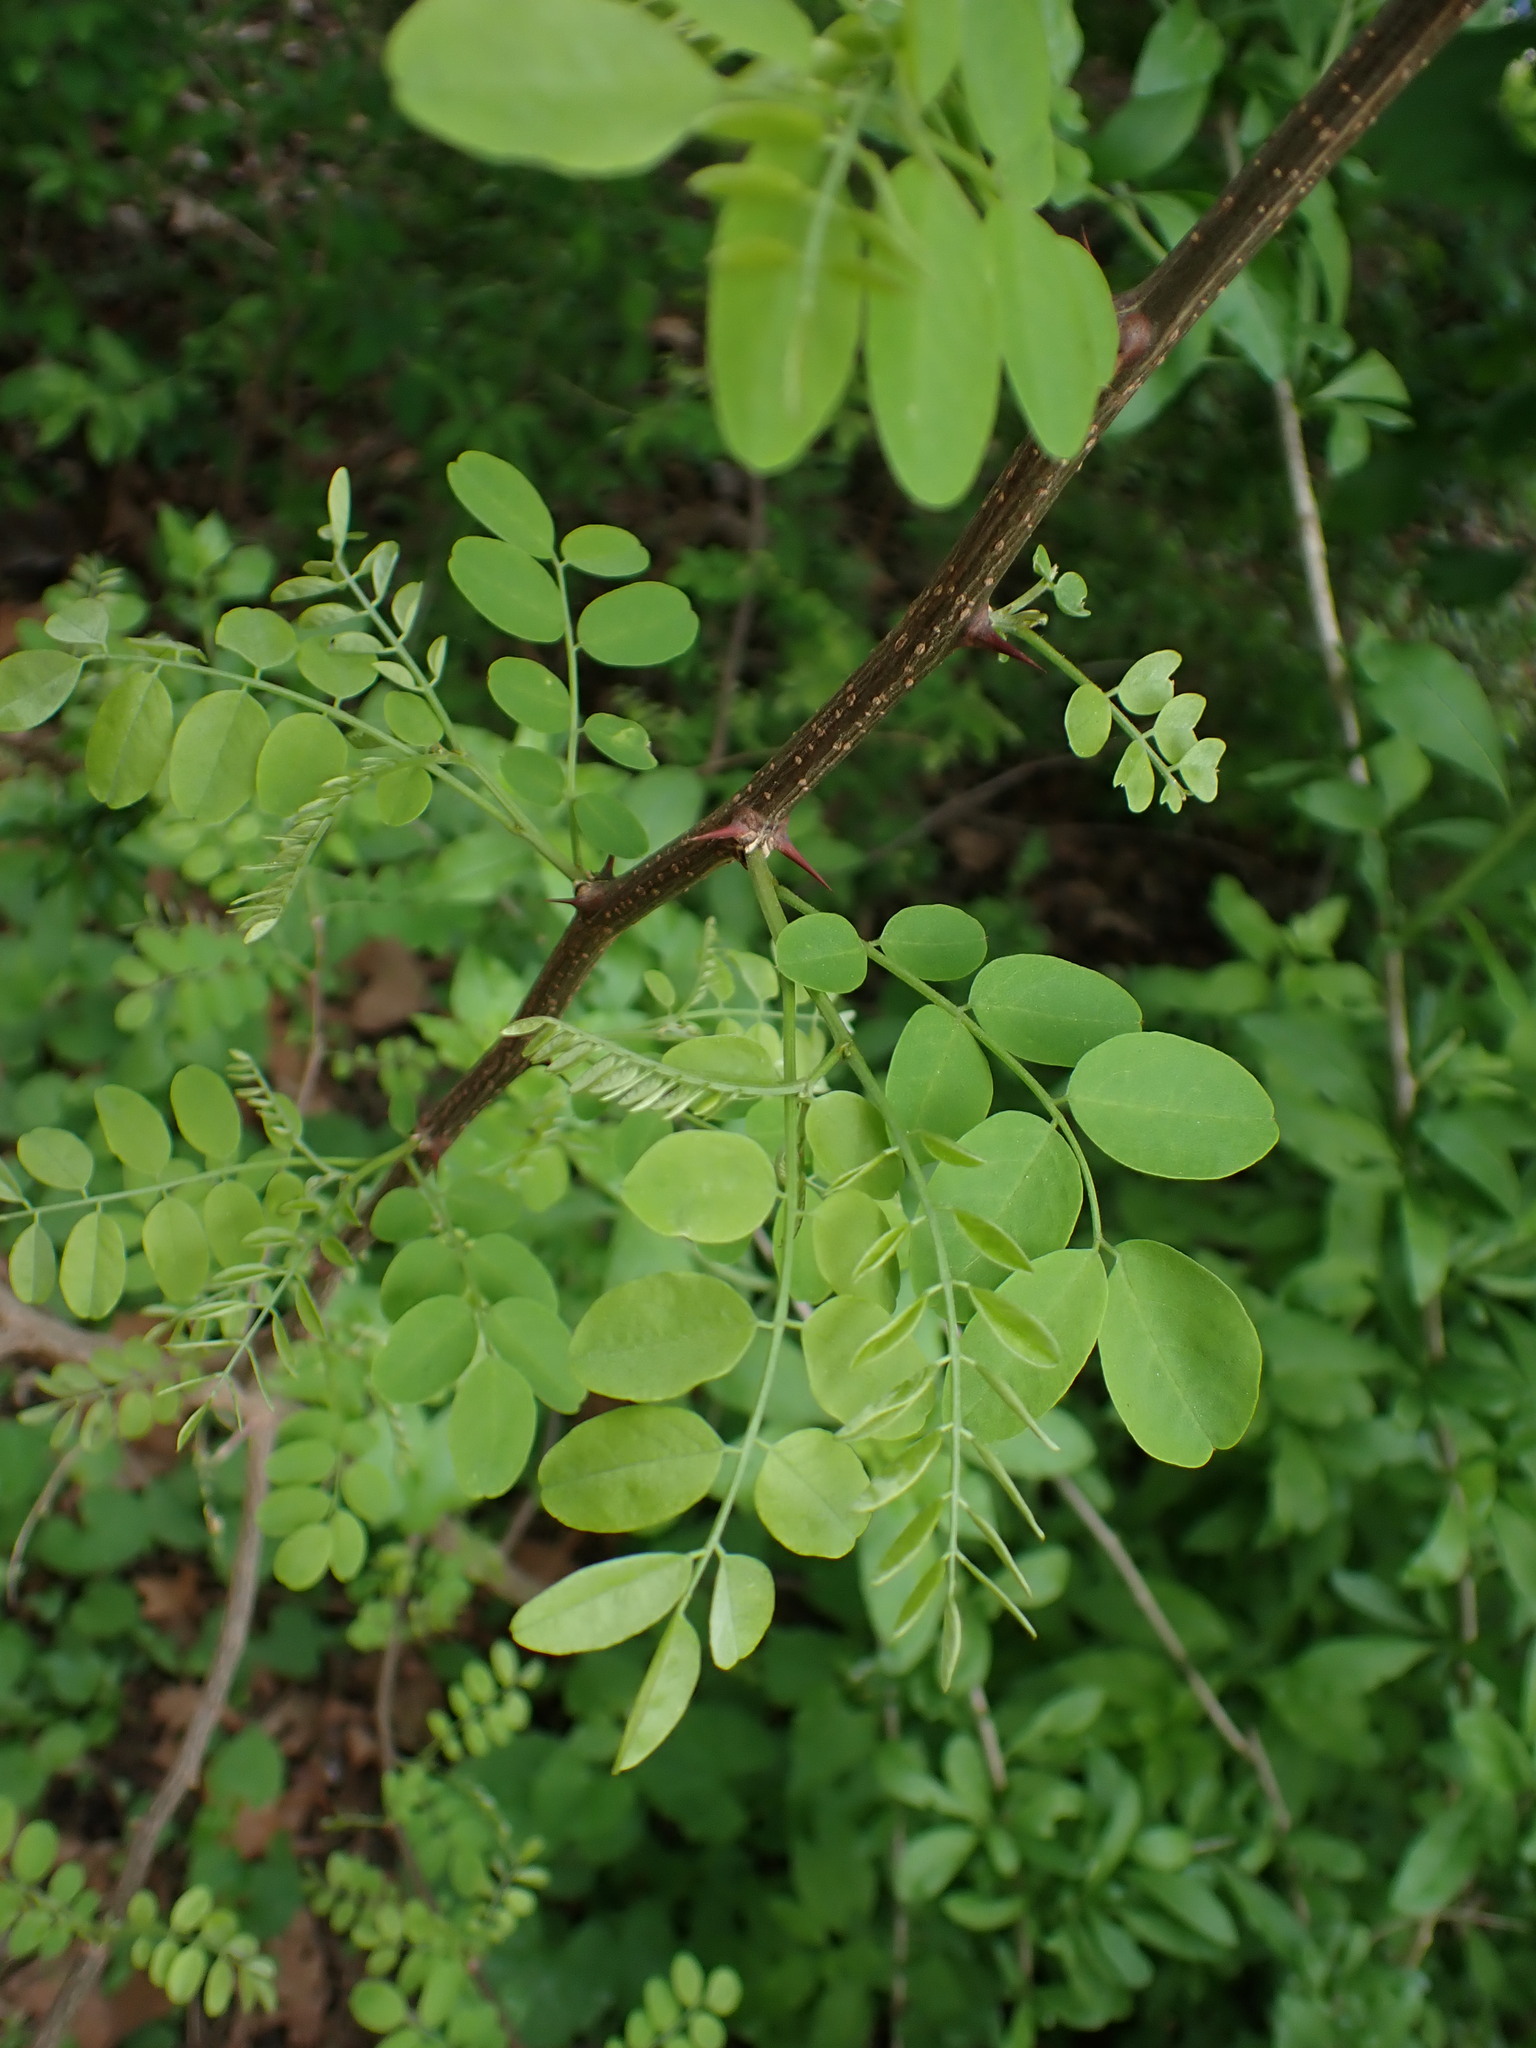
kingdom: Plantae
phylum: Tracheophyta
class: Magnoliopsida
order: Fabales
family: Fabaceae
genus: Robinia
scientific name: Robinia pseudoacacia
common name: Black locust
